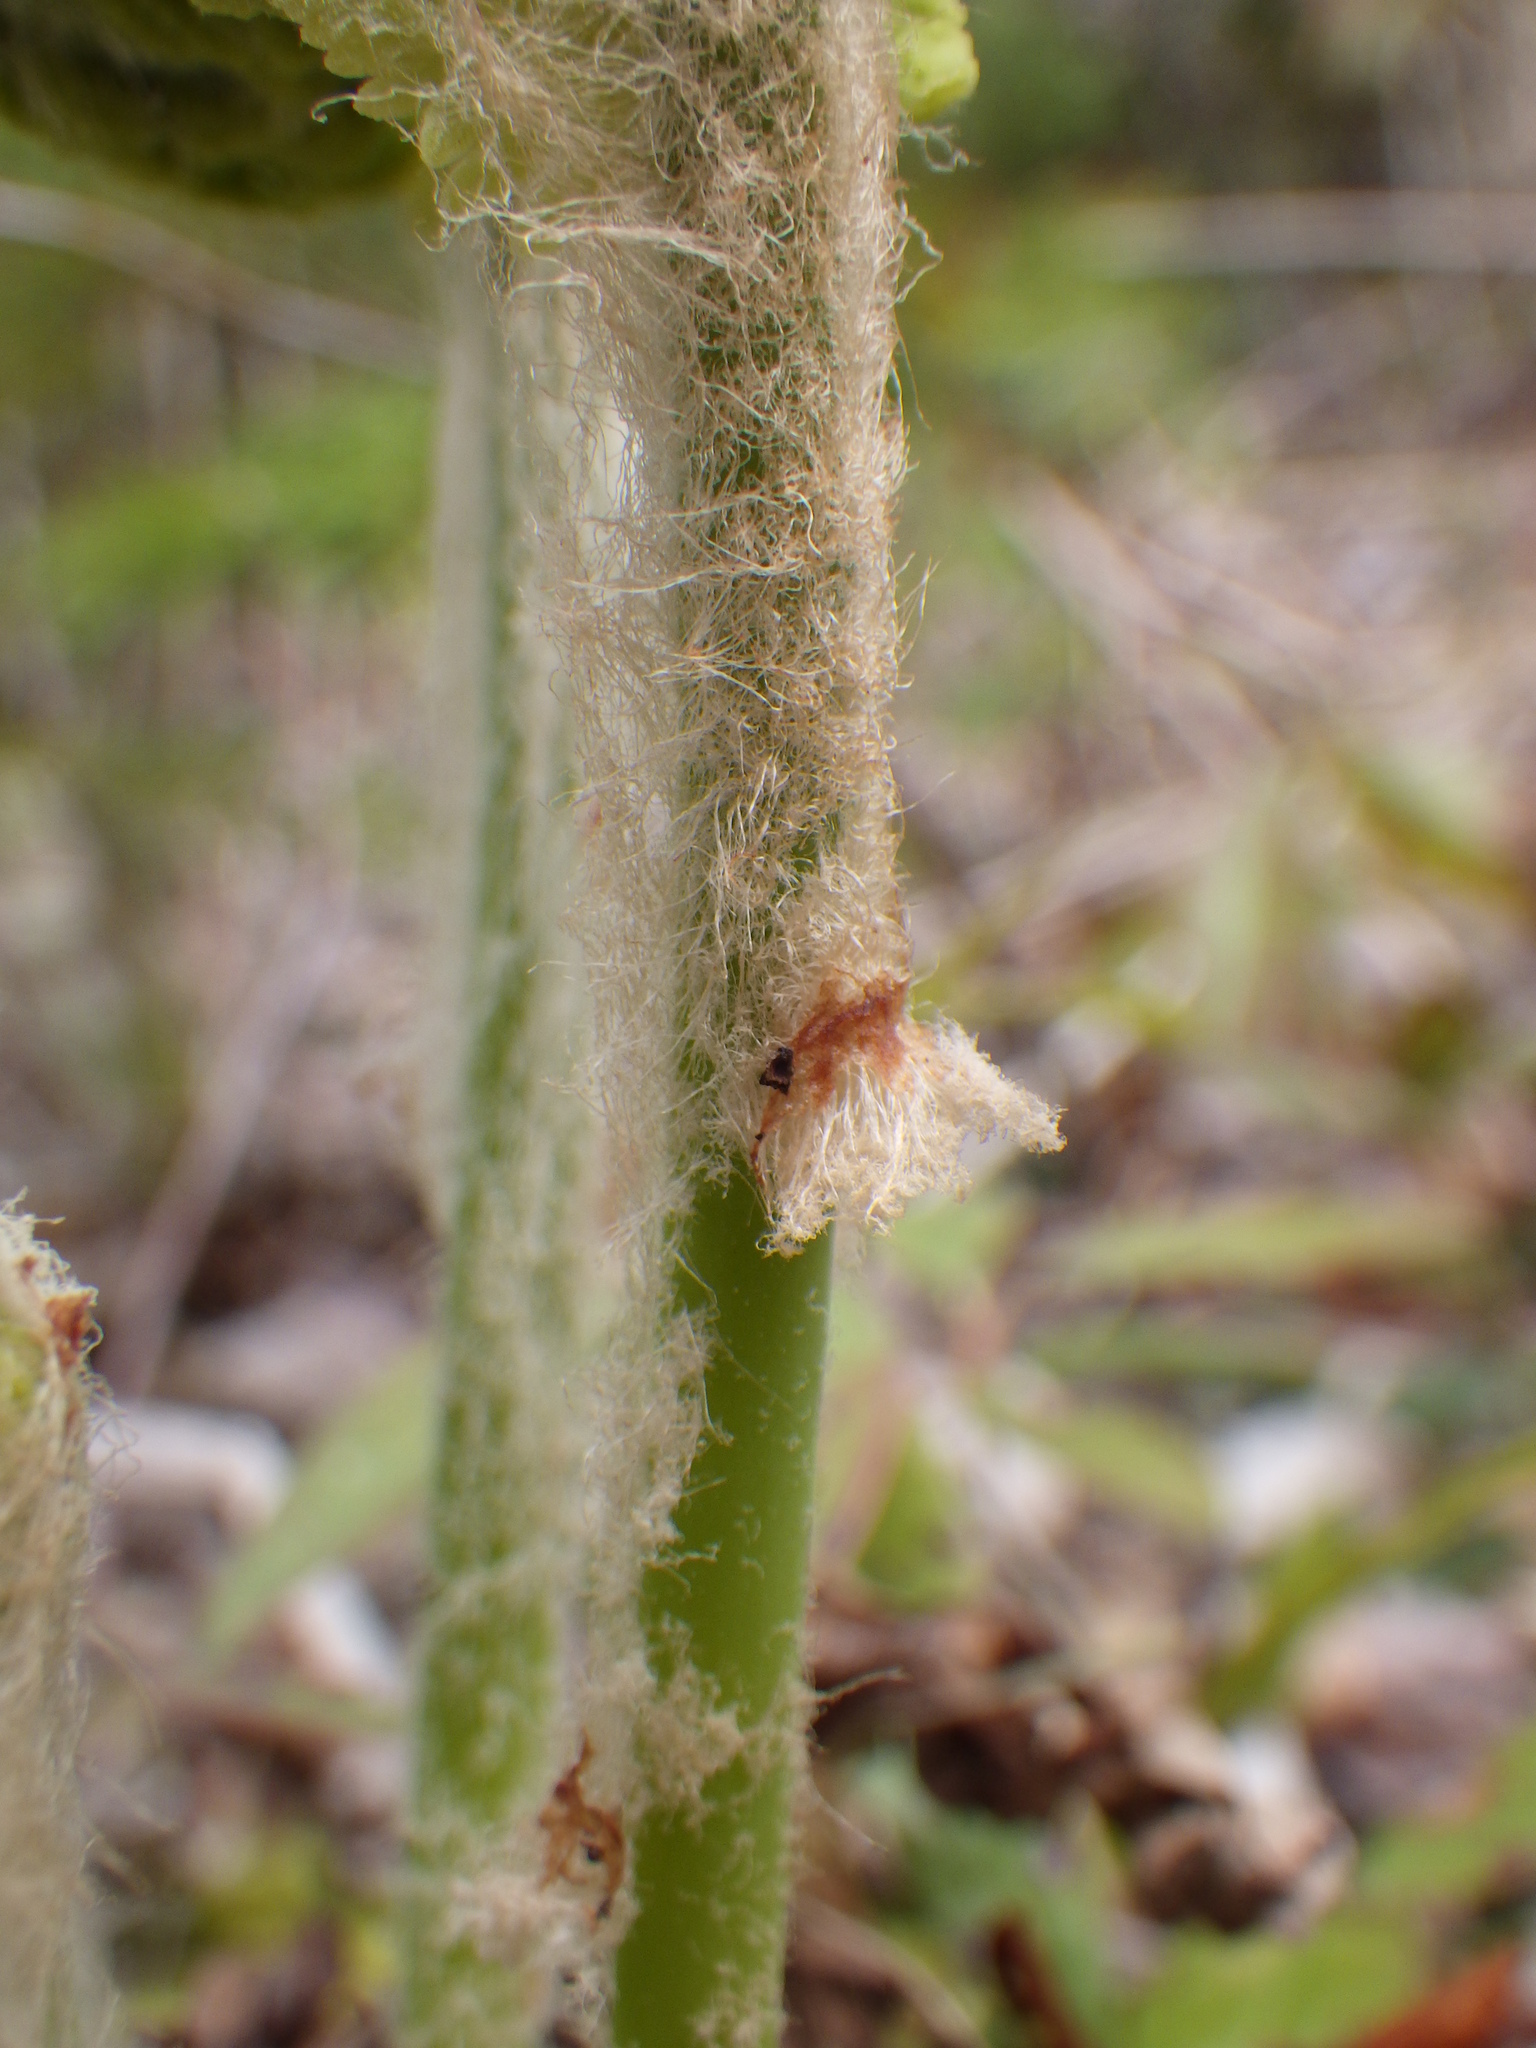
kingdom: Plantae
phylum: Tracheophyta
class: Polypodiopsida
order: Osmundales
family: Osmundaceae
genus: Claytosmunda
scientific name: Claytosmunda claytoniana
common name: Clayton's fern
